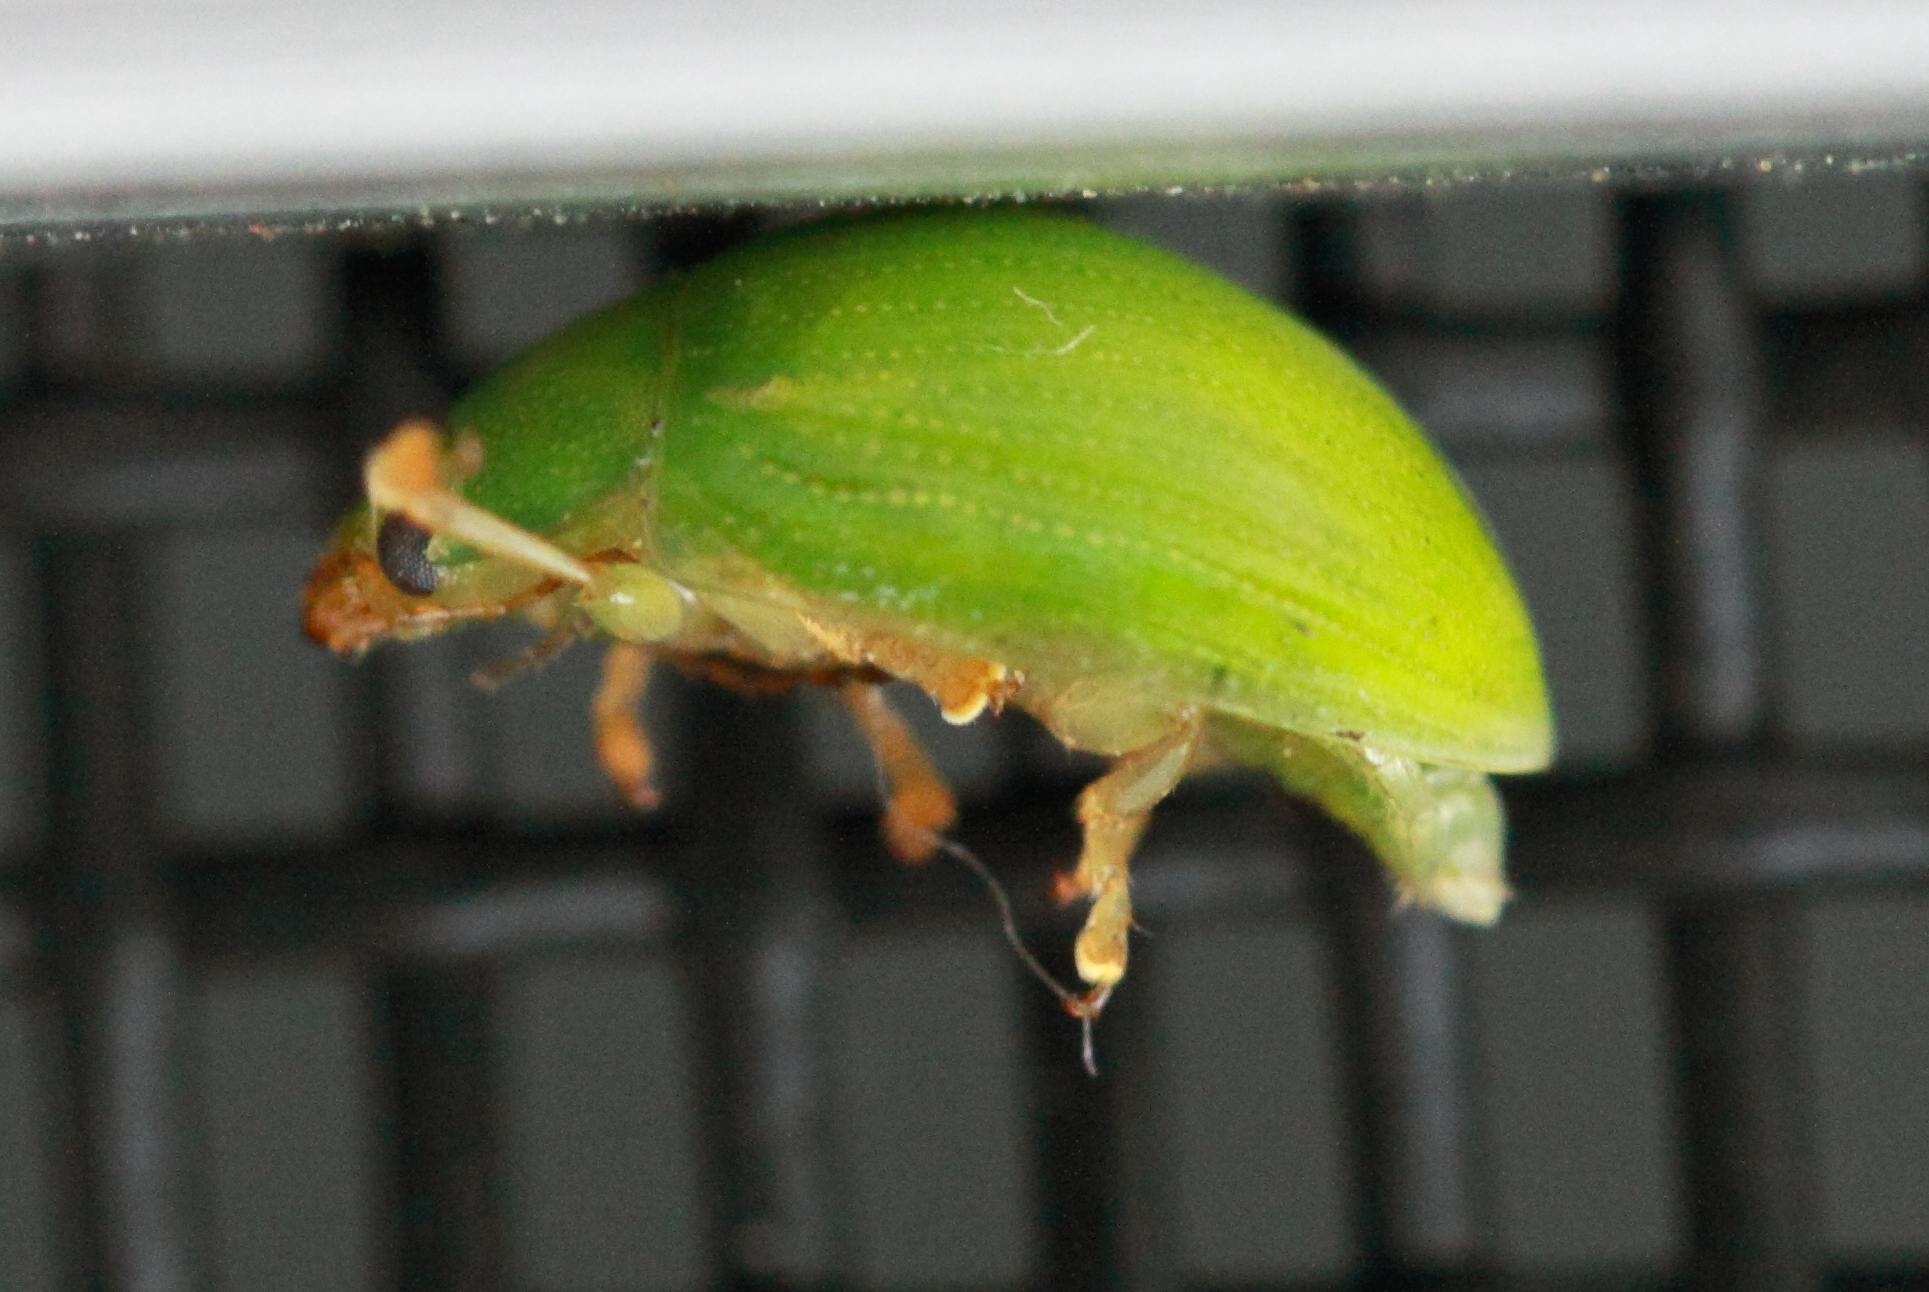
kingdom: Animalia
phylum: Arthropoda
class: Insecta
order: Coleoptera
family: Chrysomelidae
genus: Paropsides
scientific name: Paropsides
